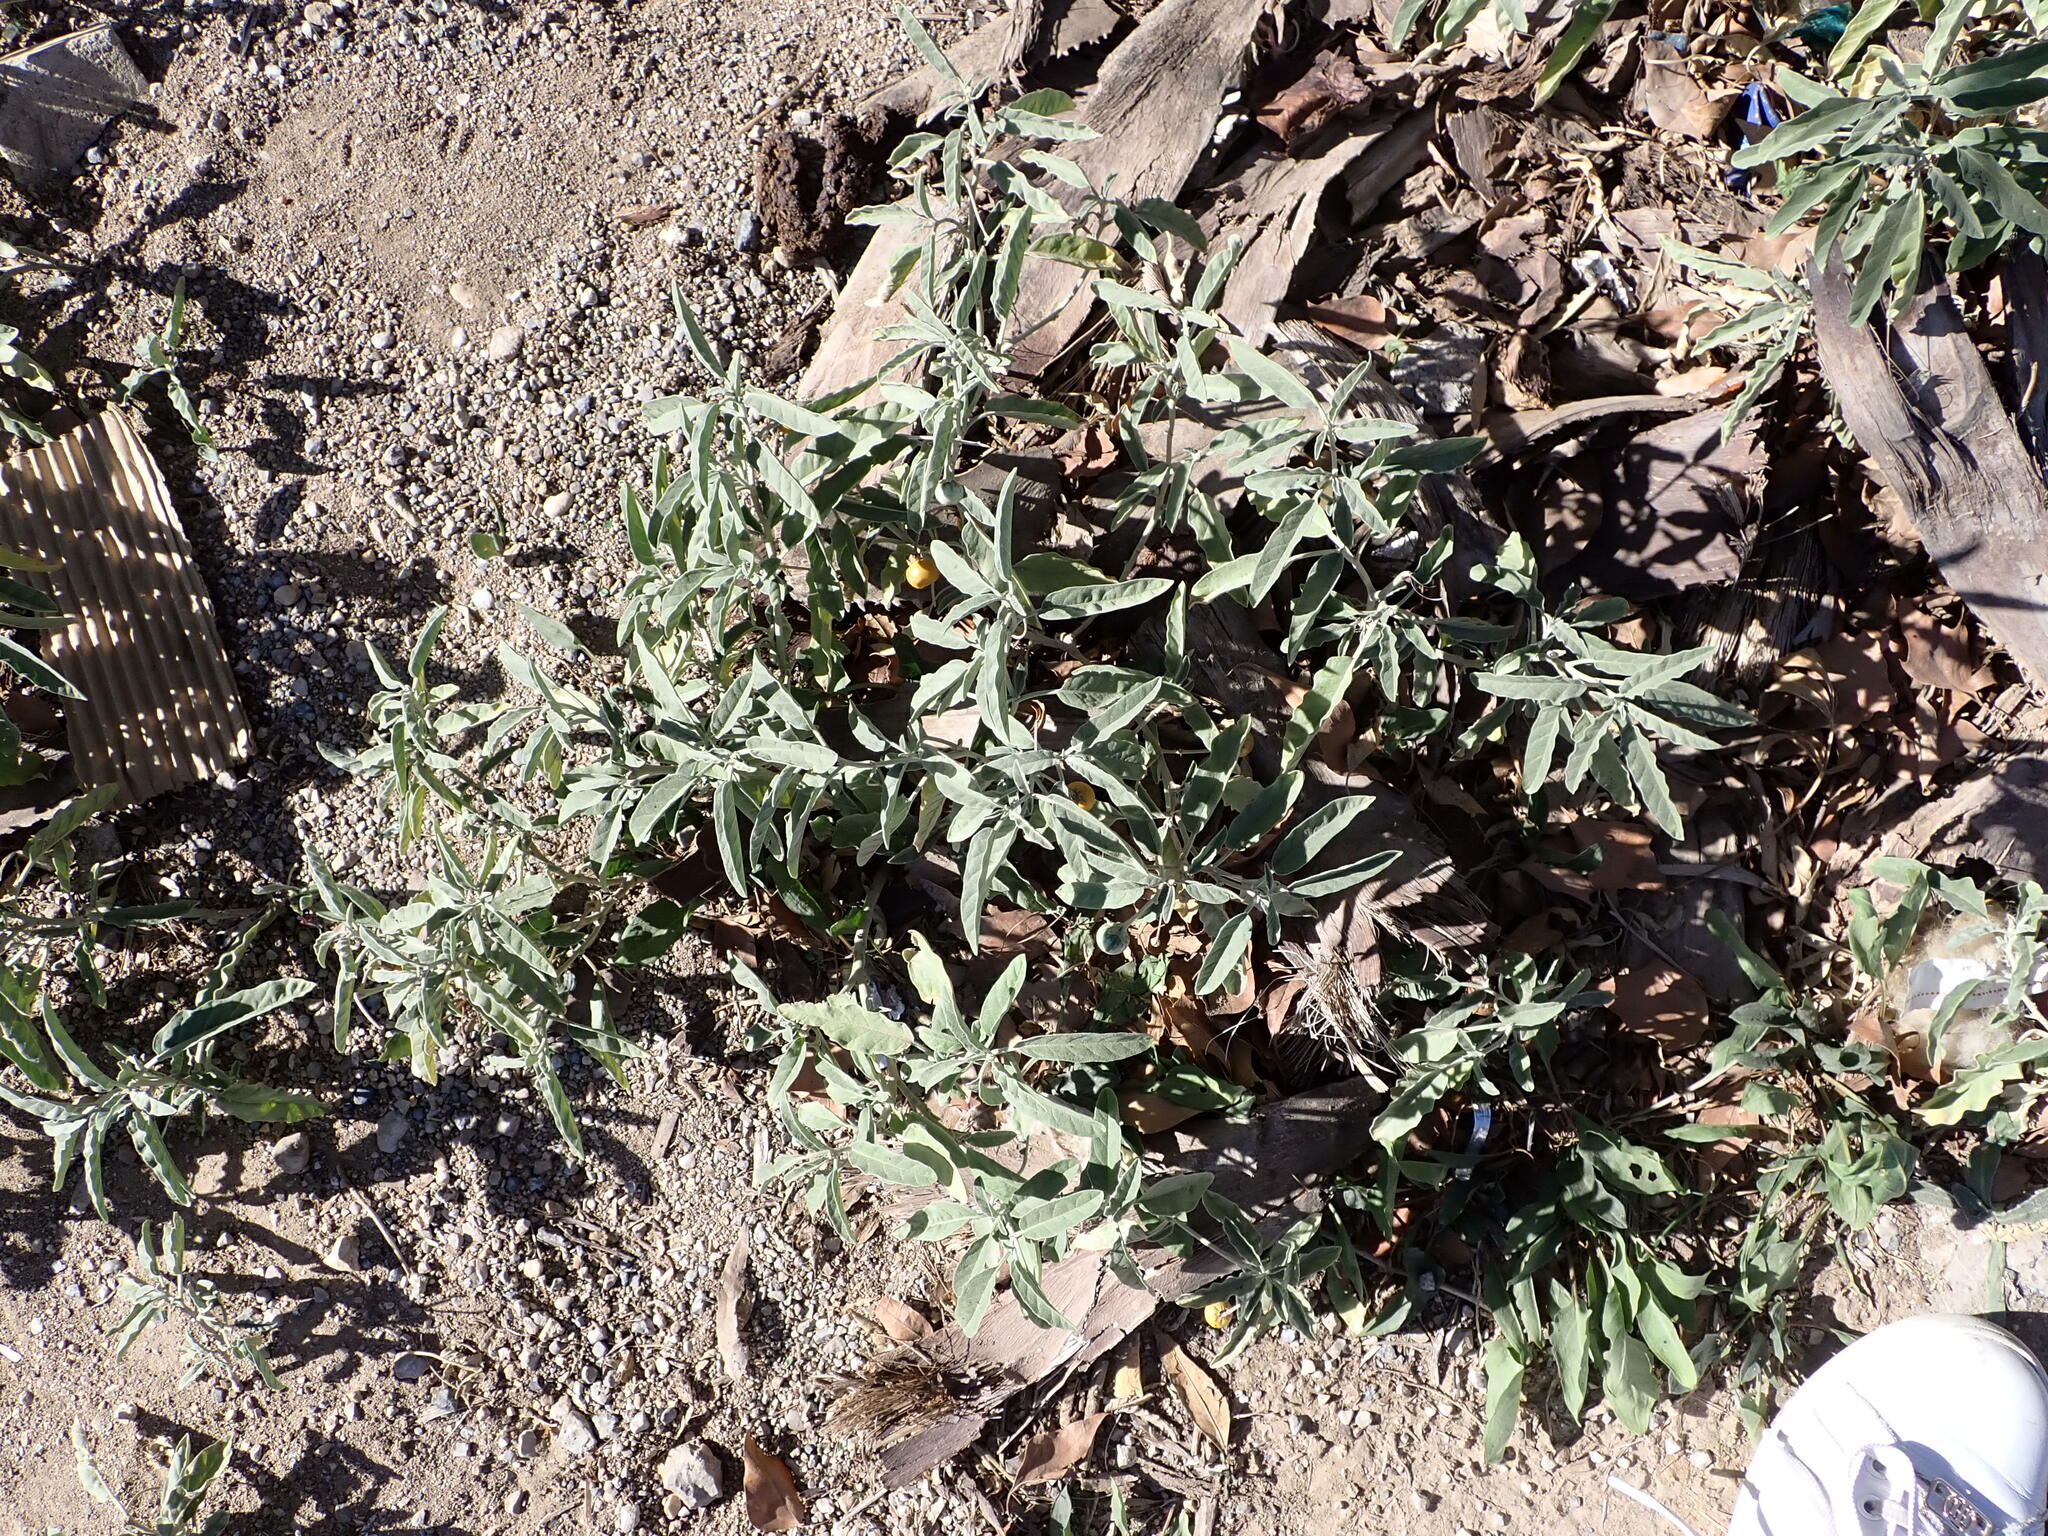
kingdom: Plantae
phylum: Tracheophyta
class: Magnoliopsida
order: Solanales
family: Solanaceae
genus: Solanum
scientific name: Solanum elaeagnifolium
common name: Silverleaf nightshade
